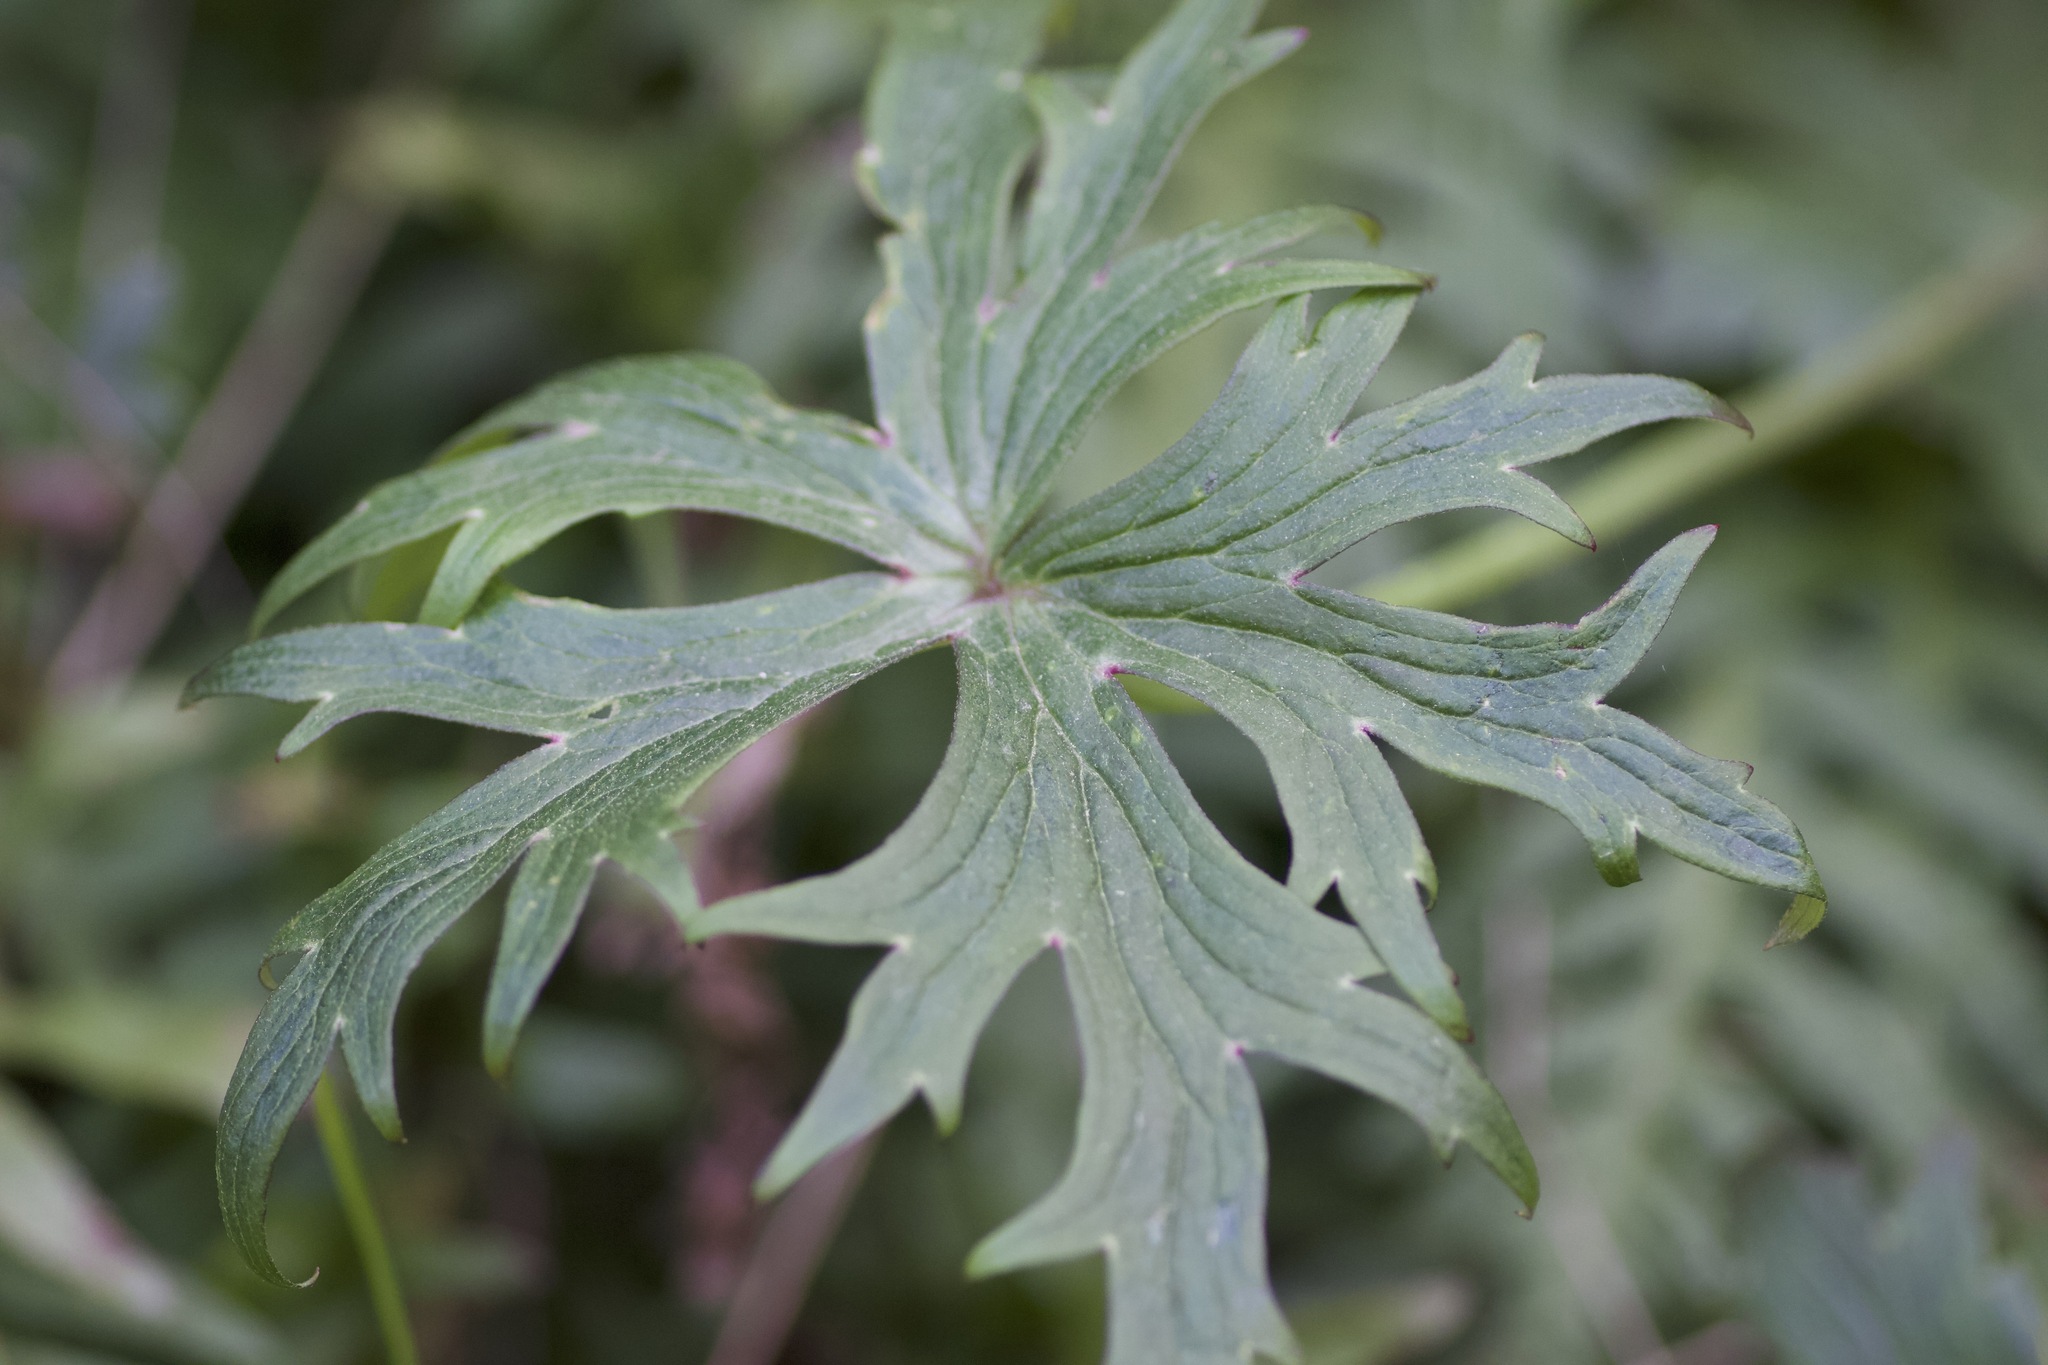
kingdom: Plantae
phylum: Tracheophyta
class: Magnoliopsida
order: Ranunculales
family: Ranunculaceae
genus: Delphinium
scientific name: Delphinium cardinale
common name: Scarlet larkspur
